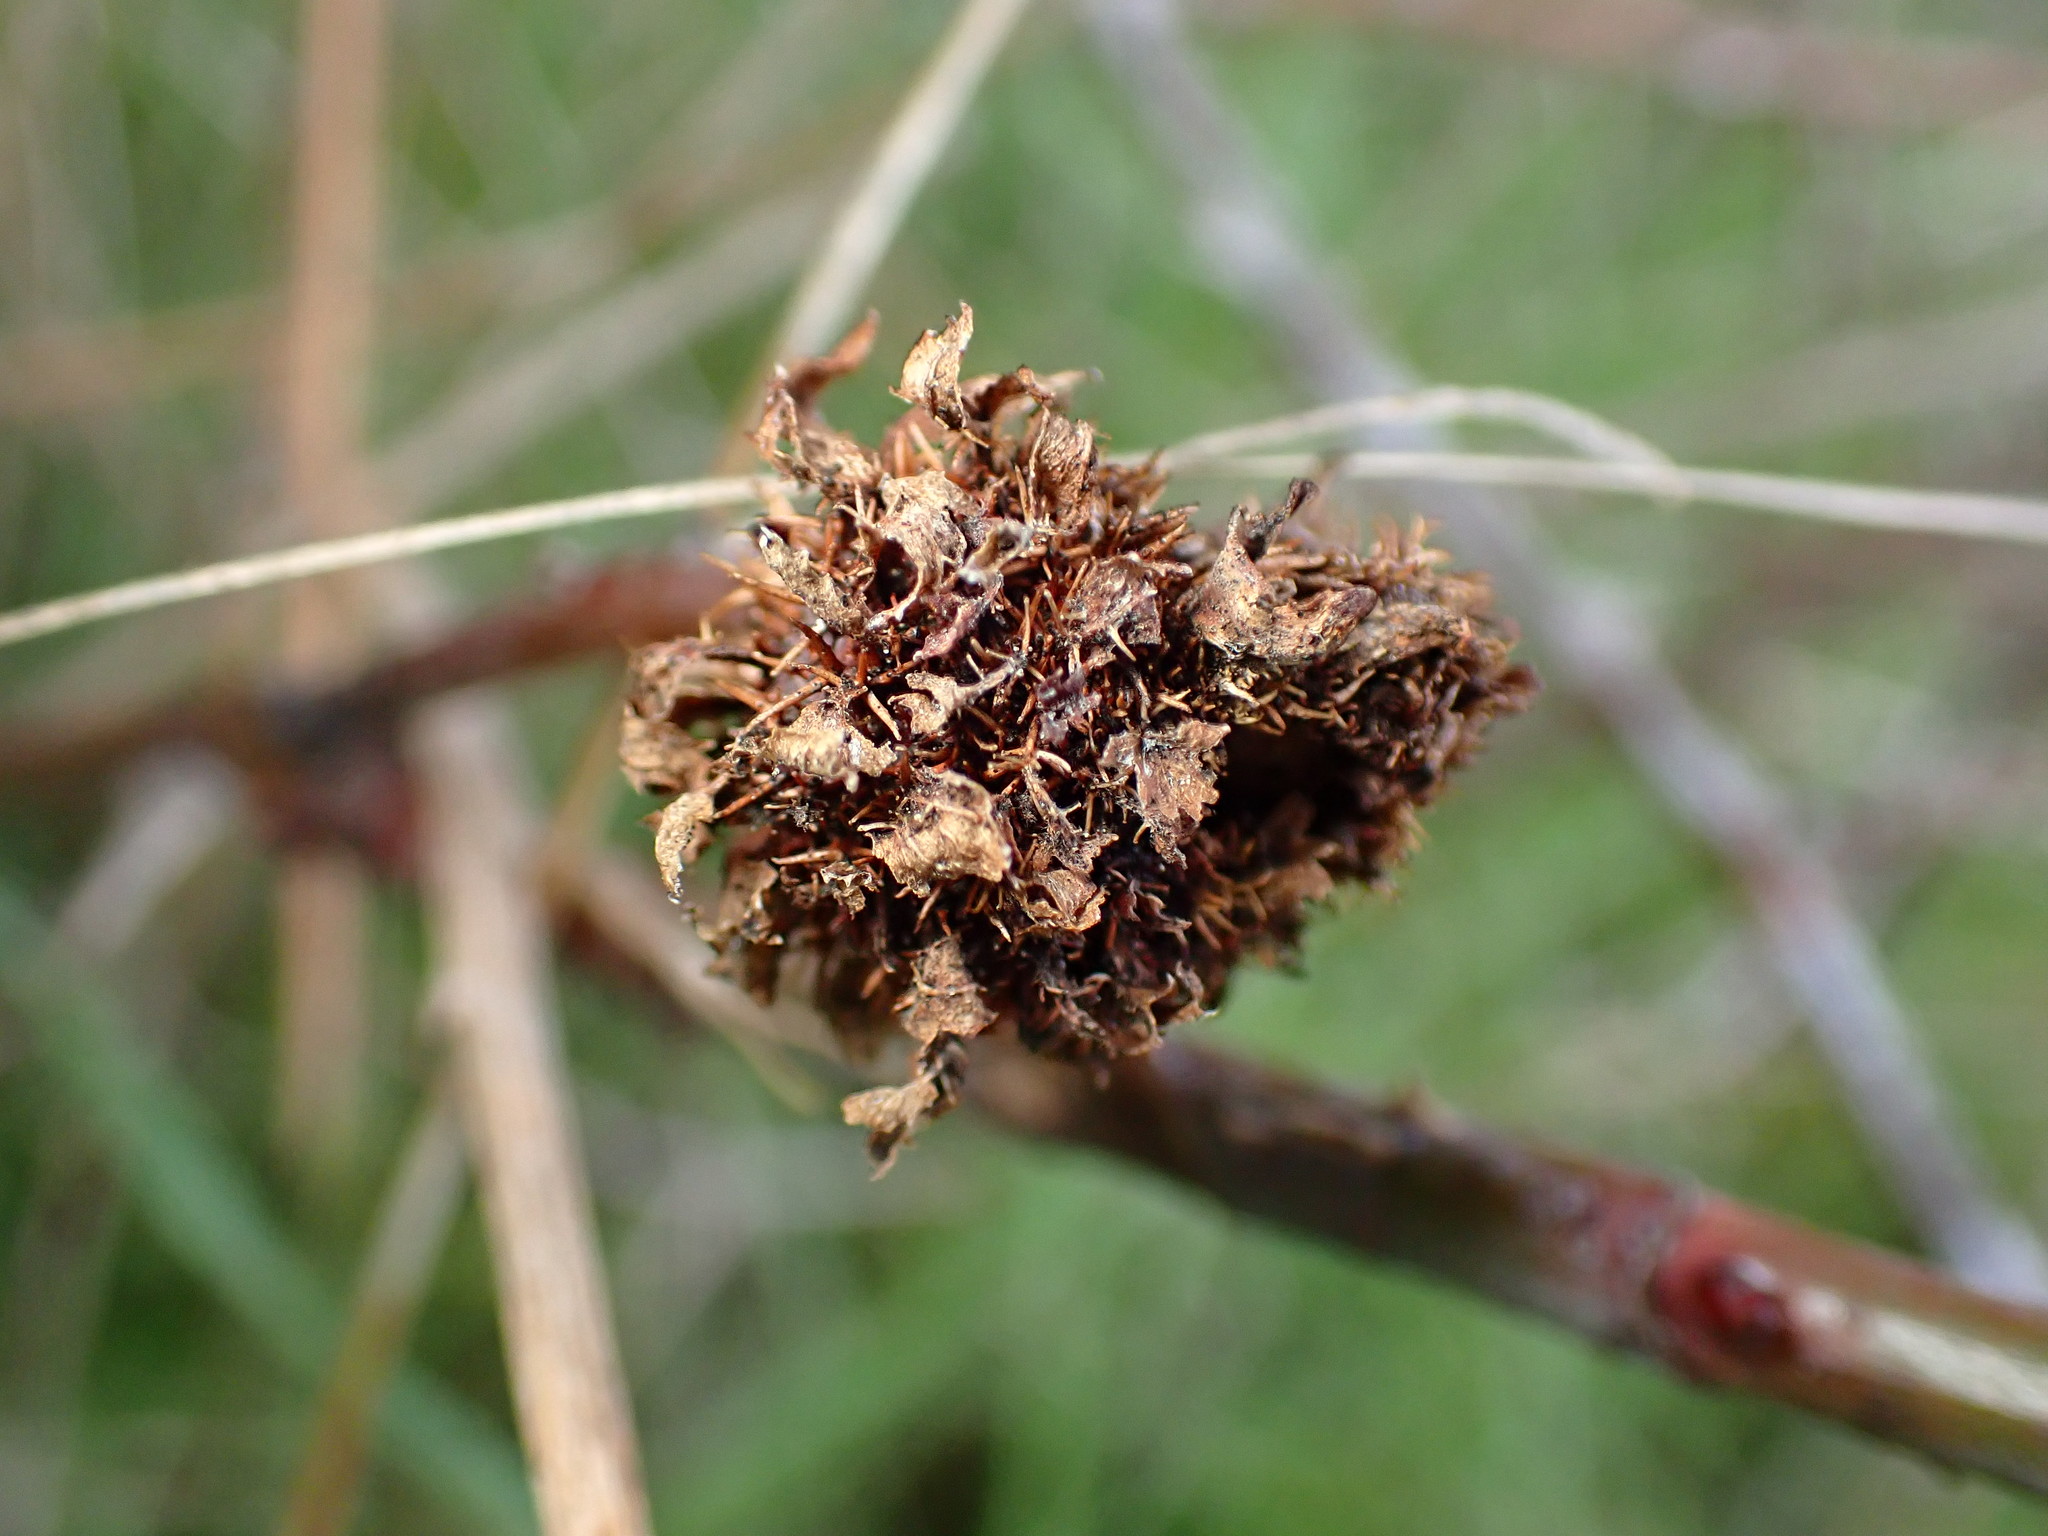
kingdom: Animalia
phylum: Arthropoda
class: Insecta
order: Hymenoptera
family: Cynipidae
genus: Diplolepis
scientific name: Diplolepis californica
